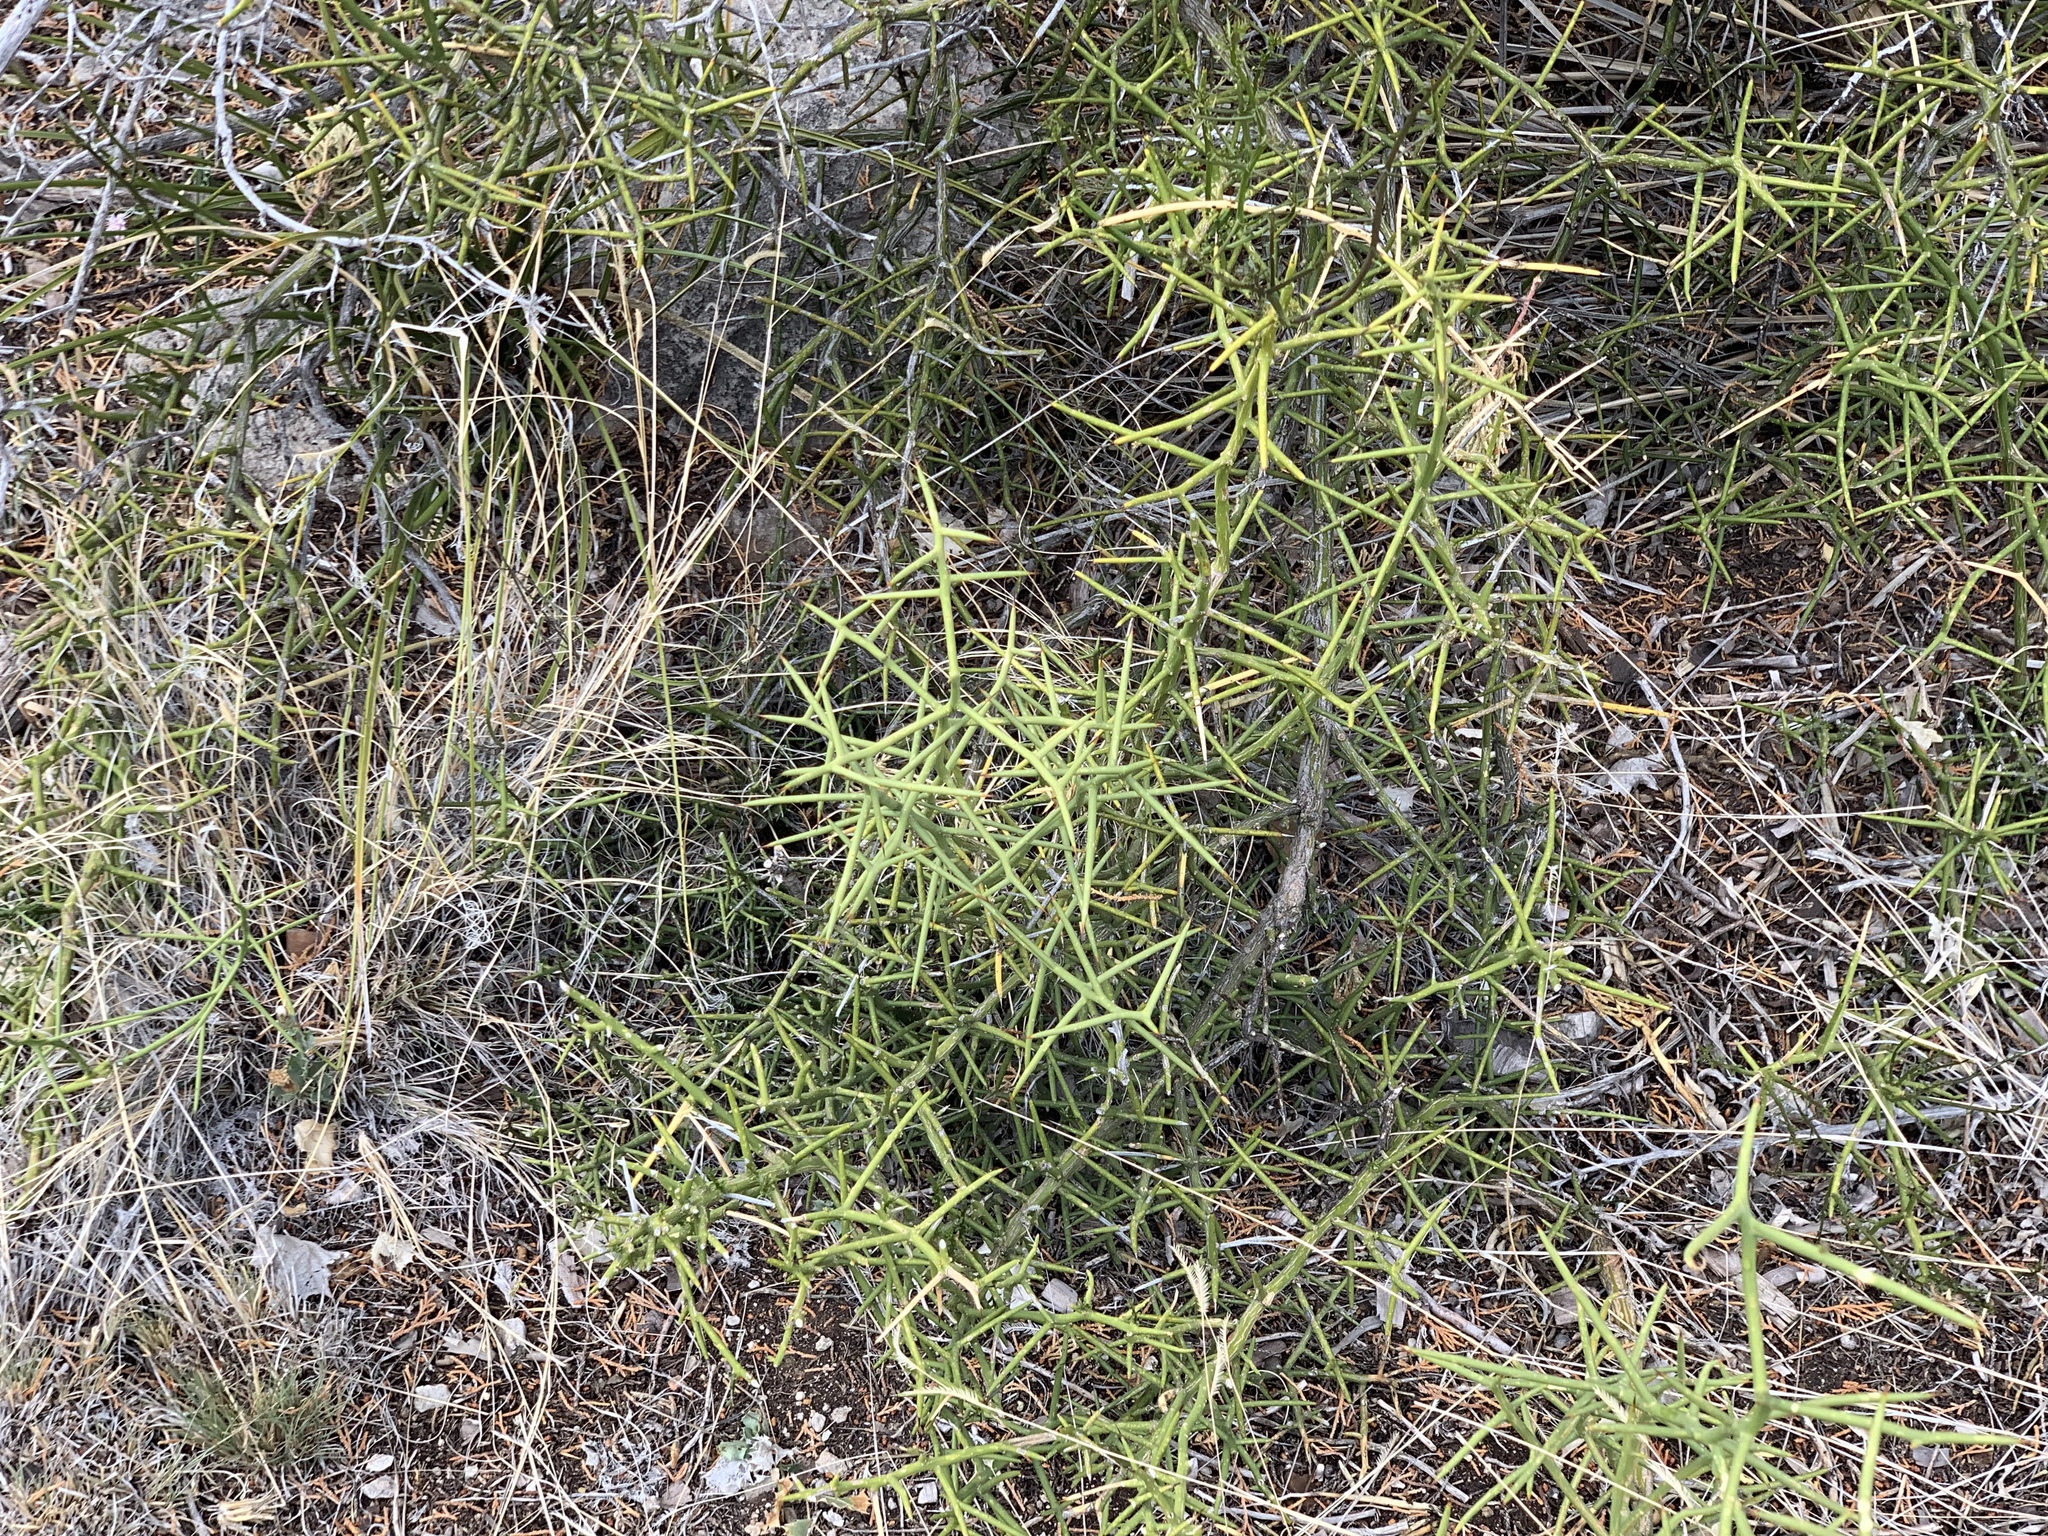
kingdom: Plantae
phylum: Tracheophyta
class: Magnoliopsida
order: Brassicales
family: Koeberliniaceae
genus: Koeberlinia
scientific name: Koeberlinia spinosa
